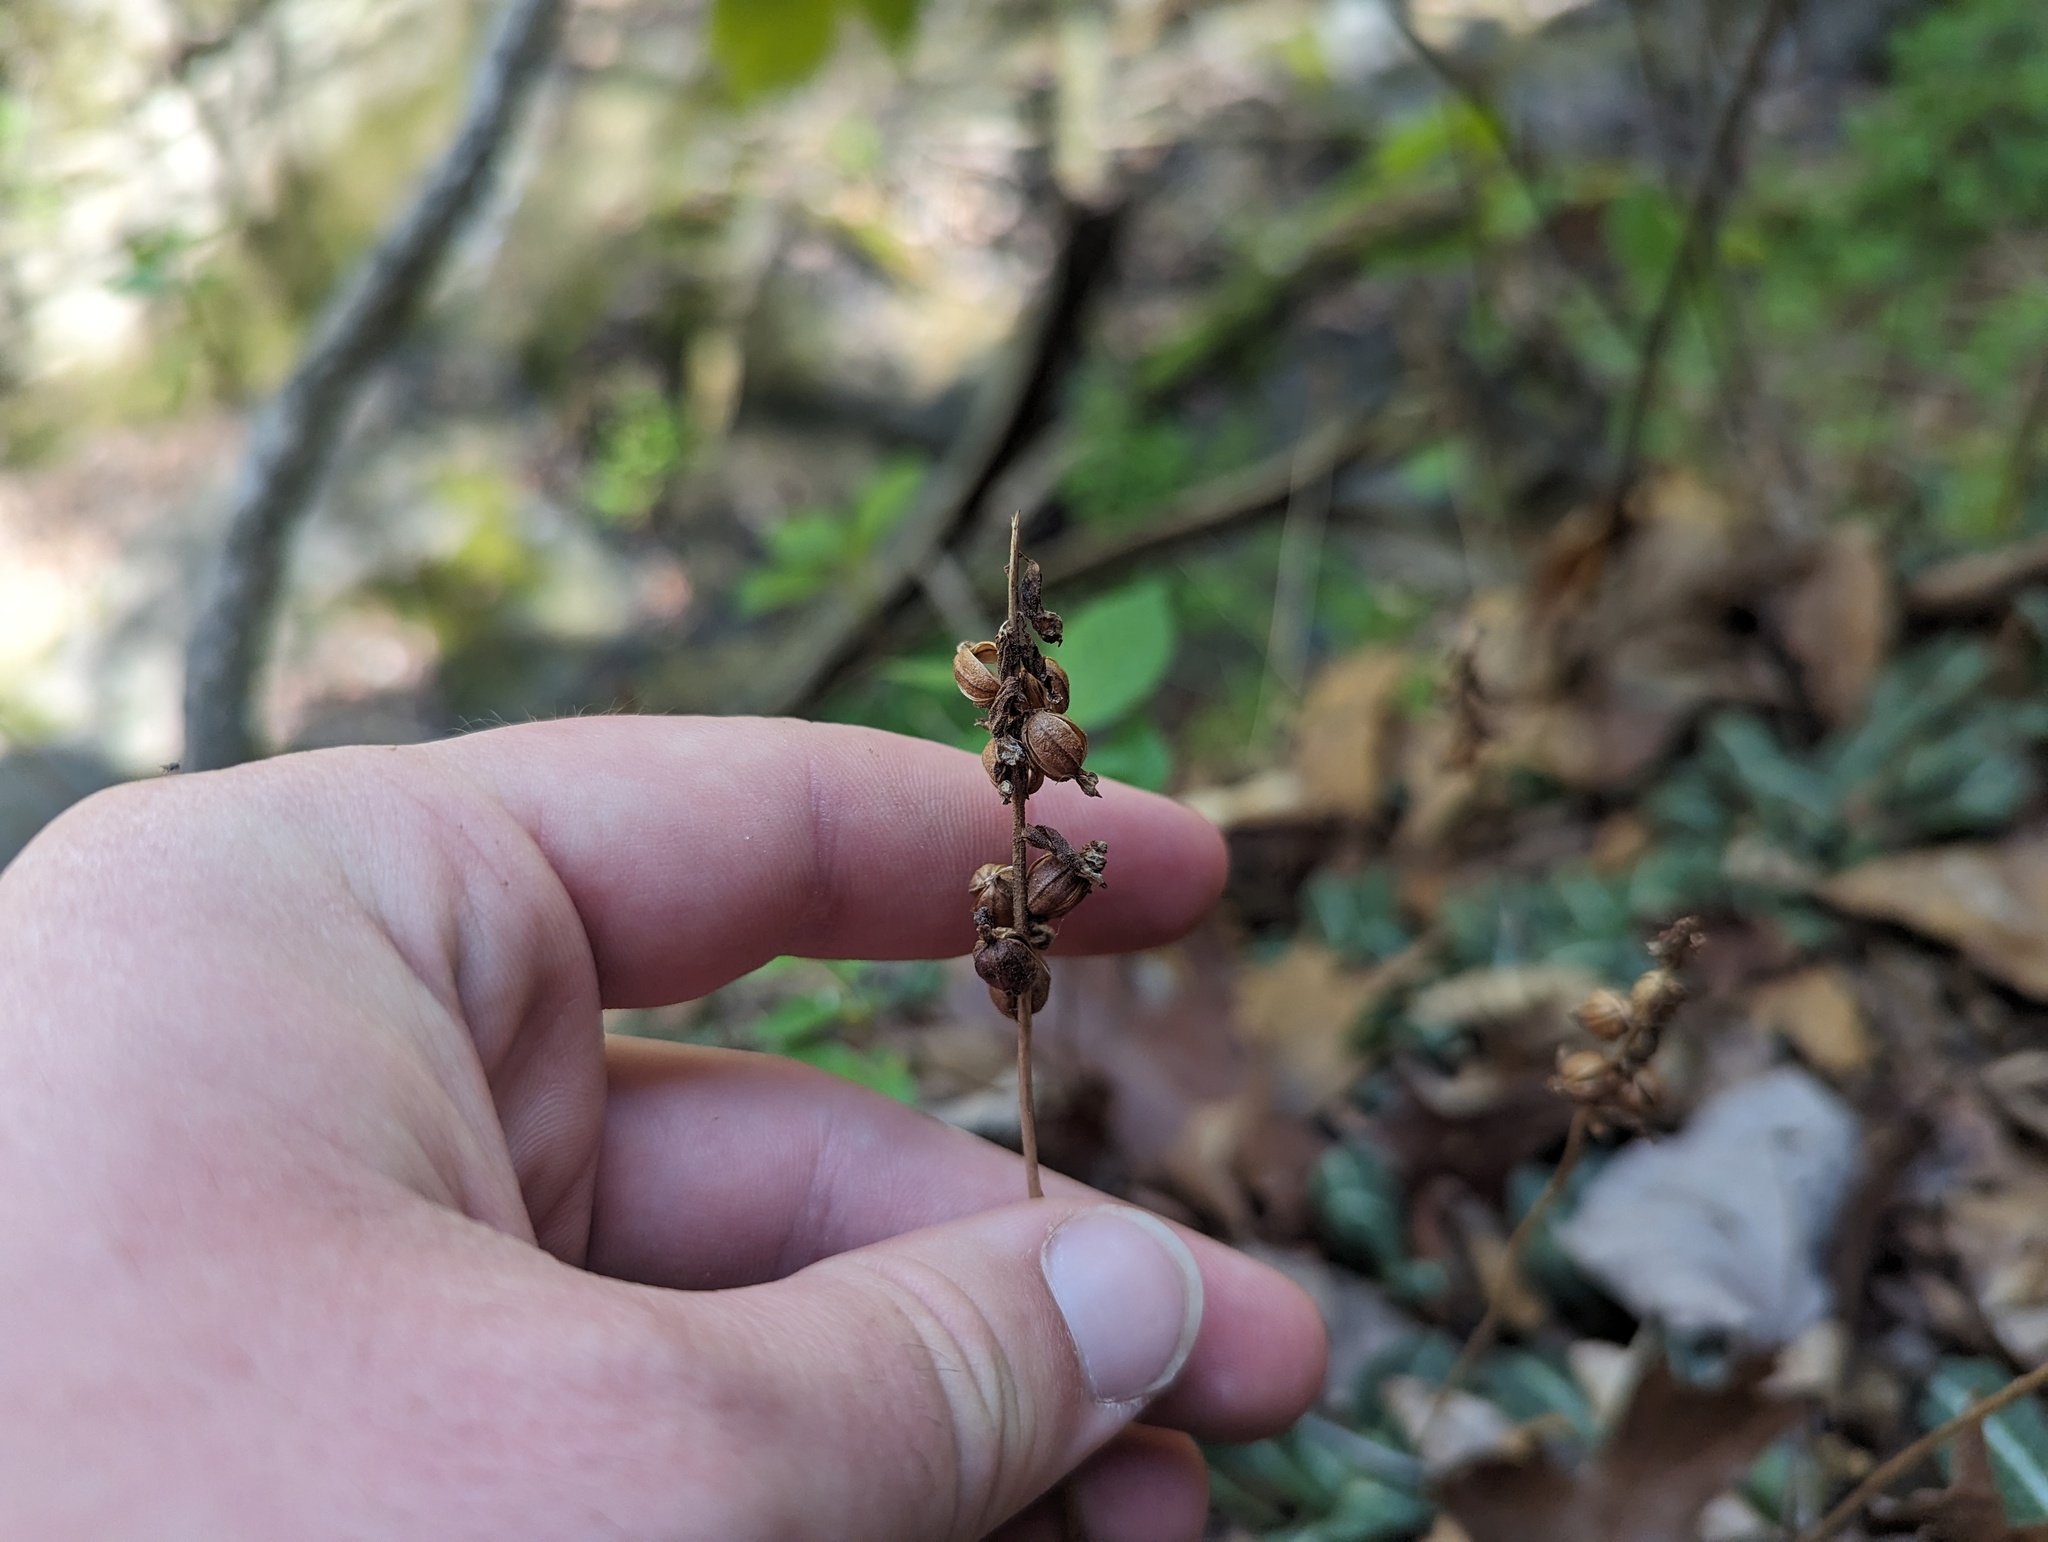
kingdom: Plantae
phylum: Tracheophyta
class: Liliopsida
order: Asparagales
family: Orchidaceae
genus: Goodyera
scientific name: Goodyera pubescens
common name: Downy rattlesnake-plantain
